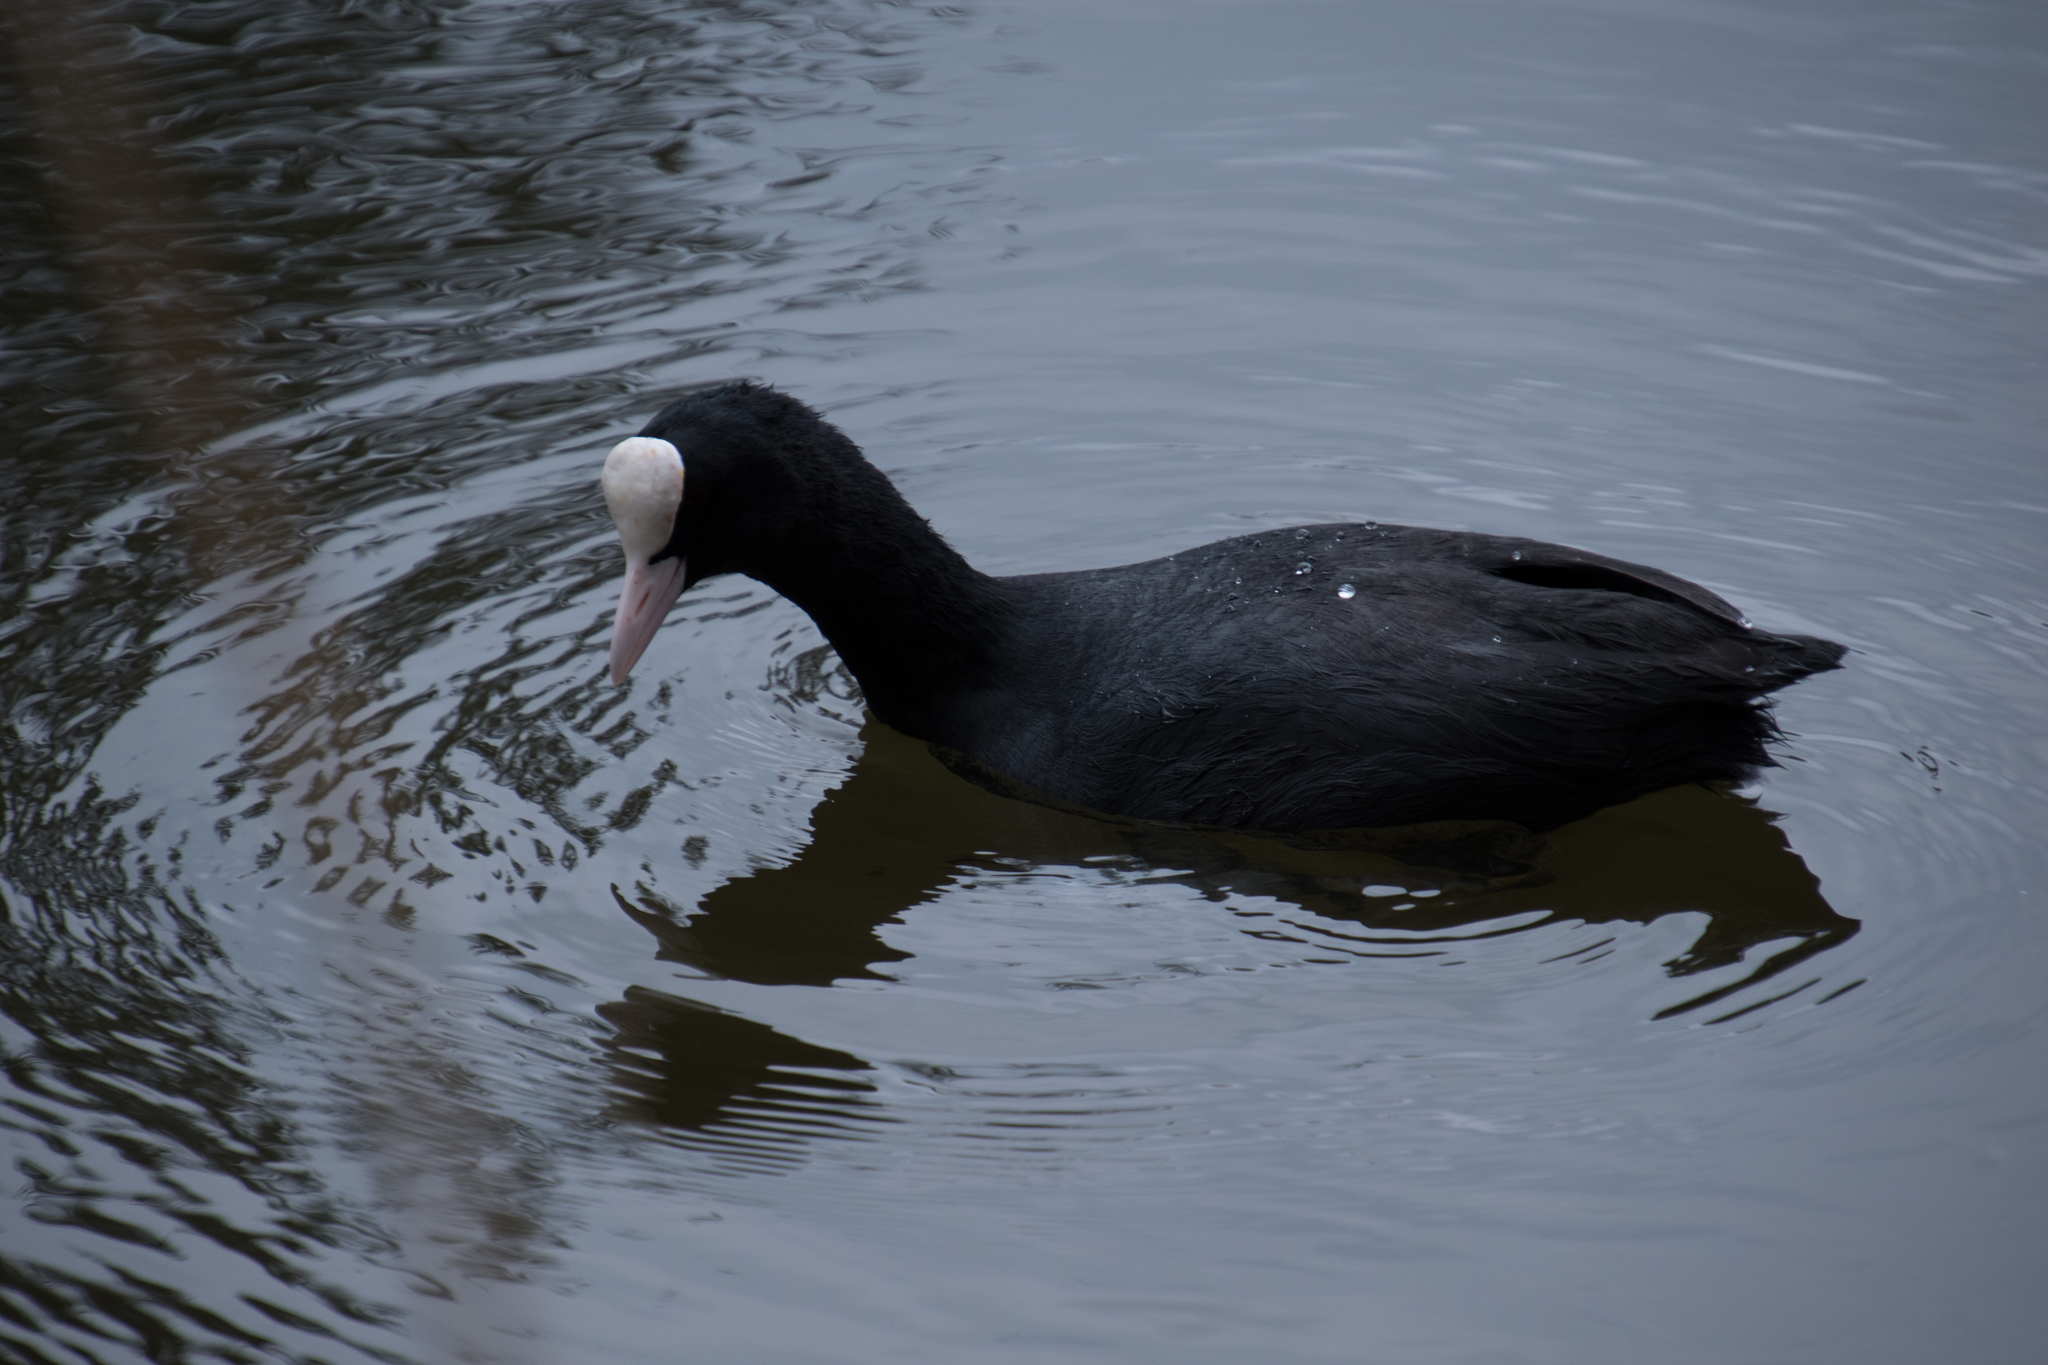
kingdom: Animalia
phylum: Chordata
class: Aves
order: Gruiformes
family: Rallidae
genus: Fulica
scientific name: Fulica atra
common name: Eurasian coot
